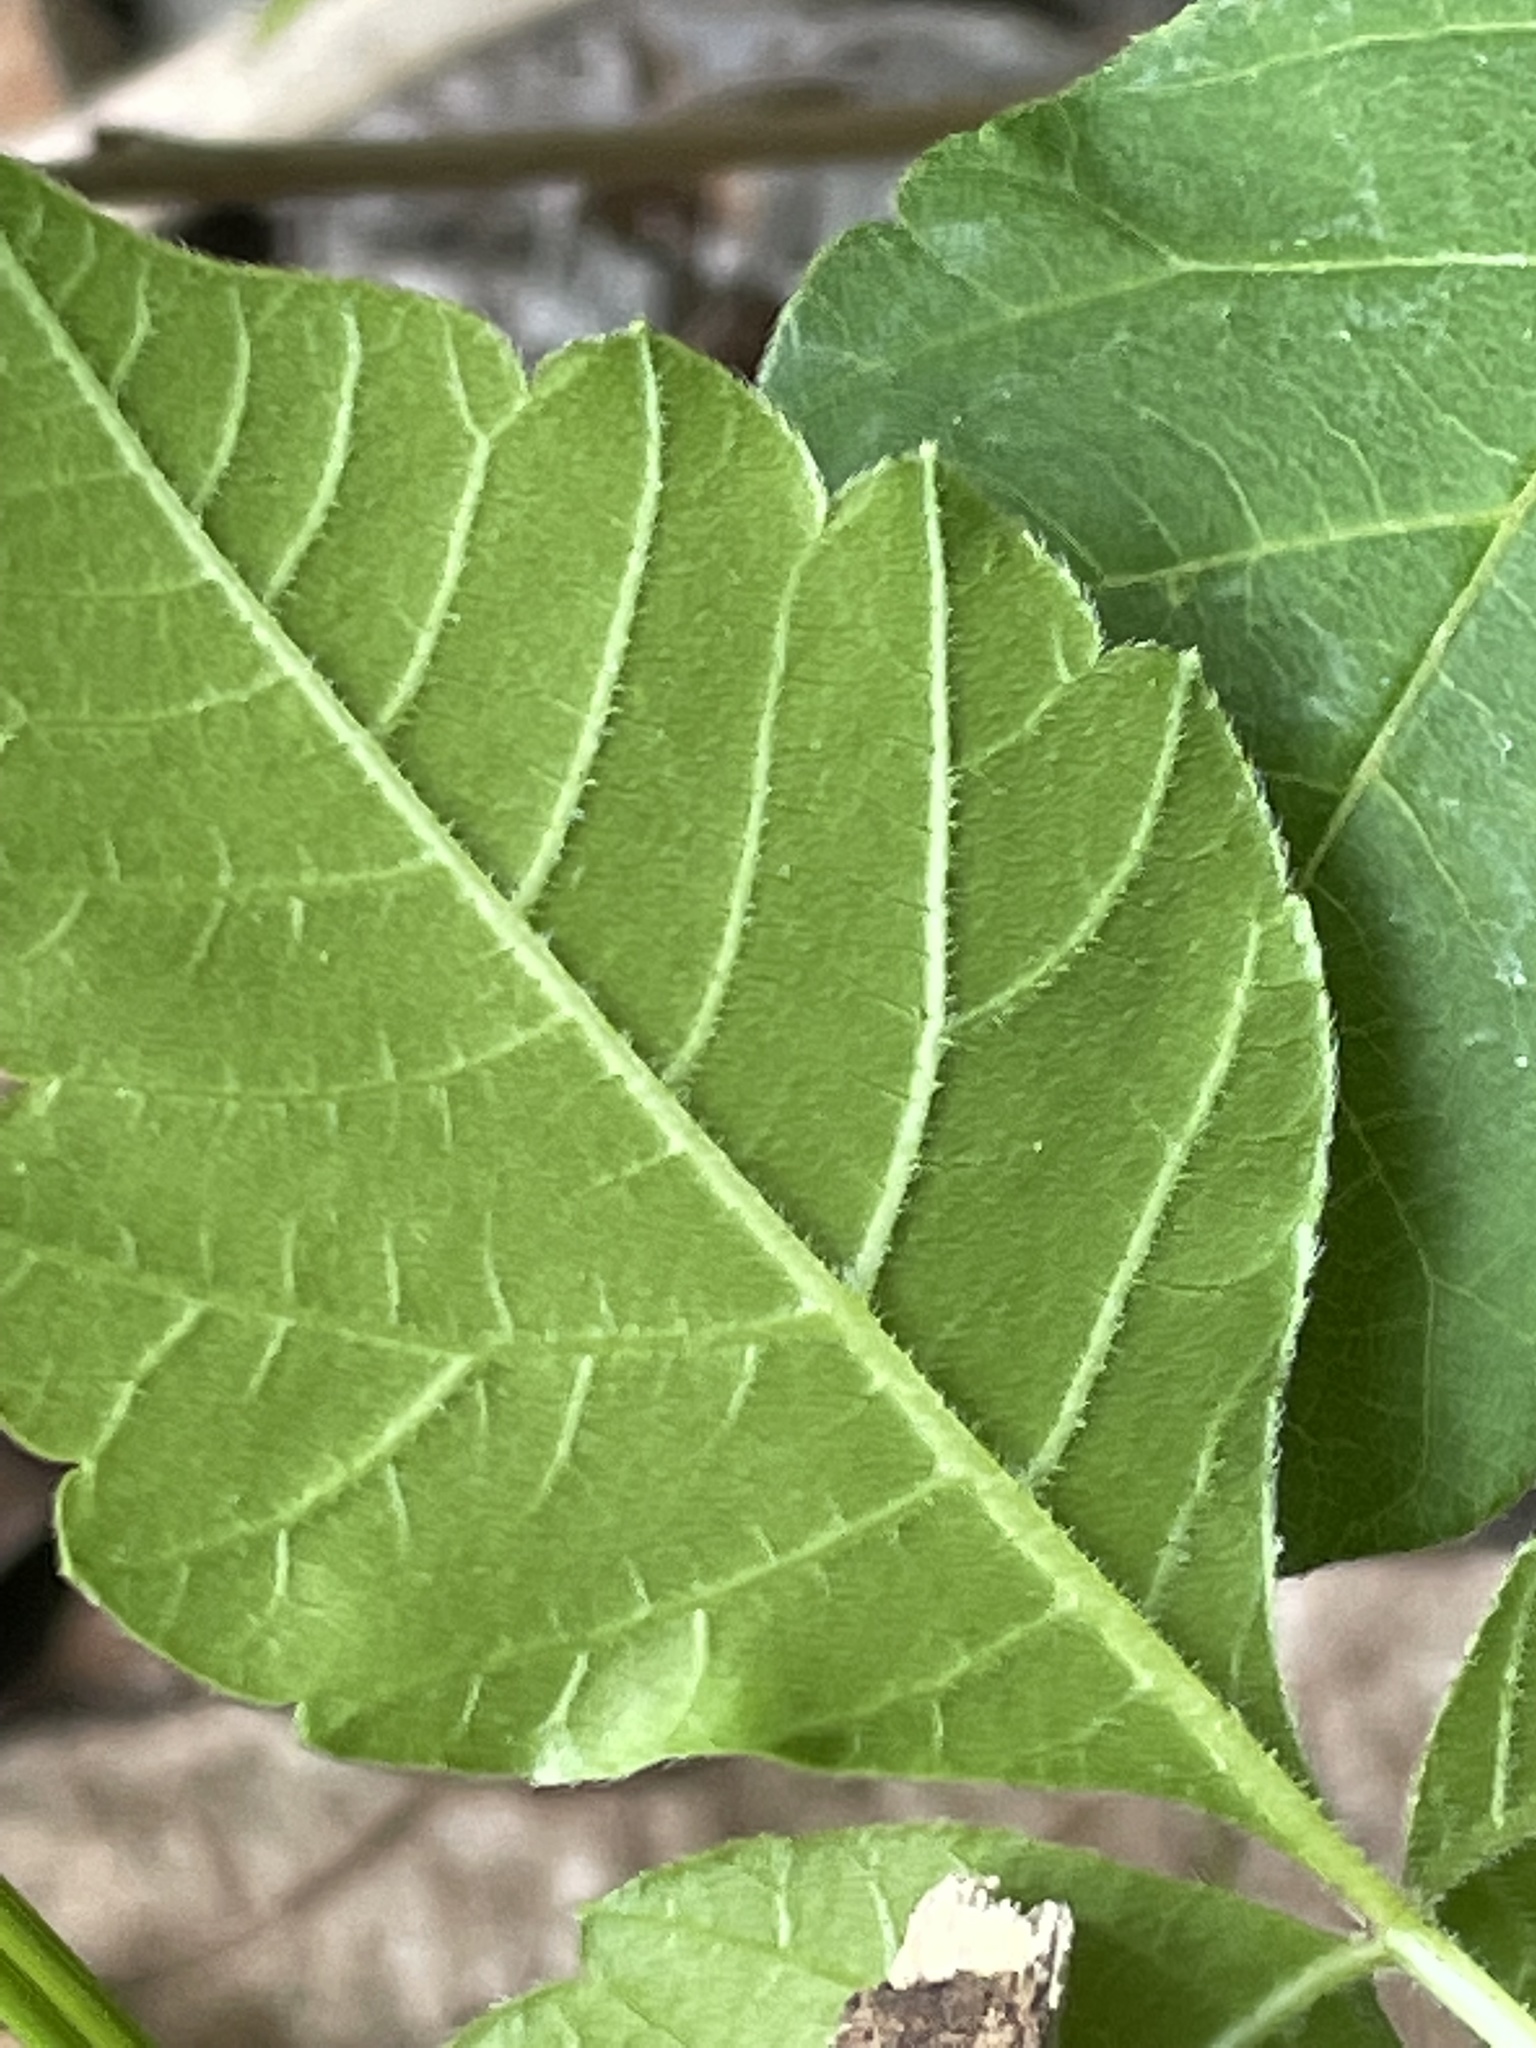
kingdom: Plantae
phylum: Tracheophyta
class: Magnoliopsida
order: Sapindales
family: Anacardiaceae
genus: Rhus
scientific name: Rhus aromatica
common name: Aromatic sumac
